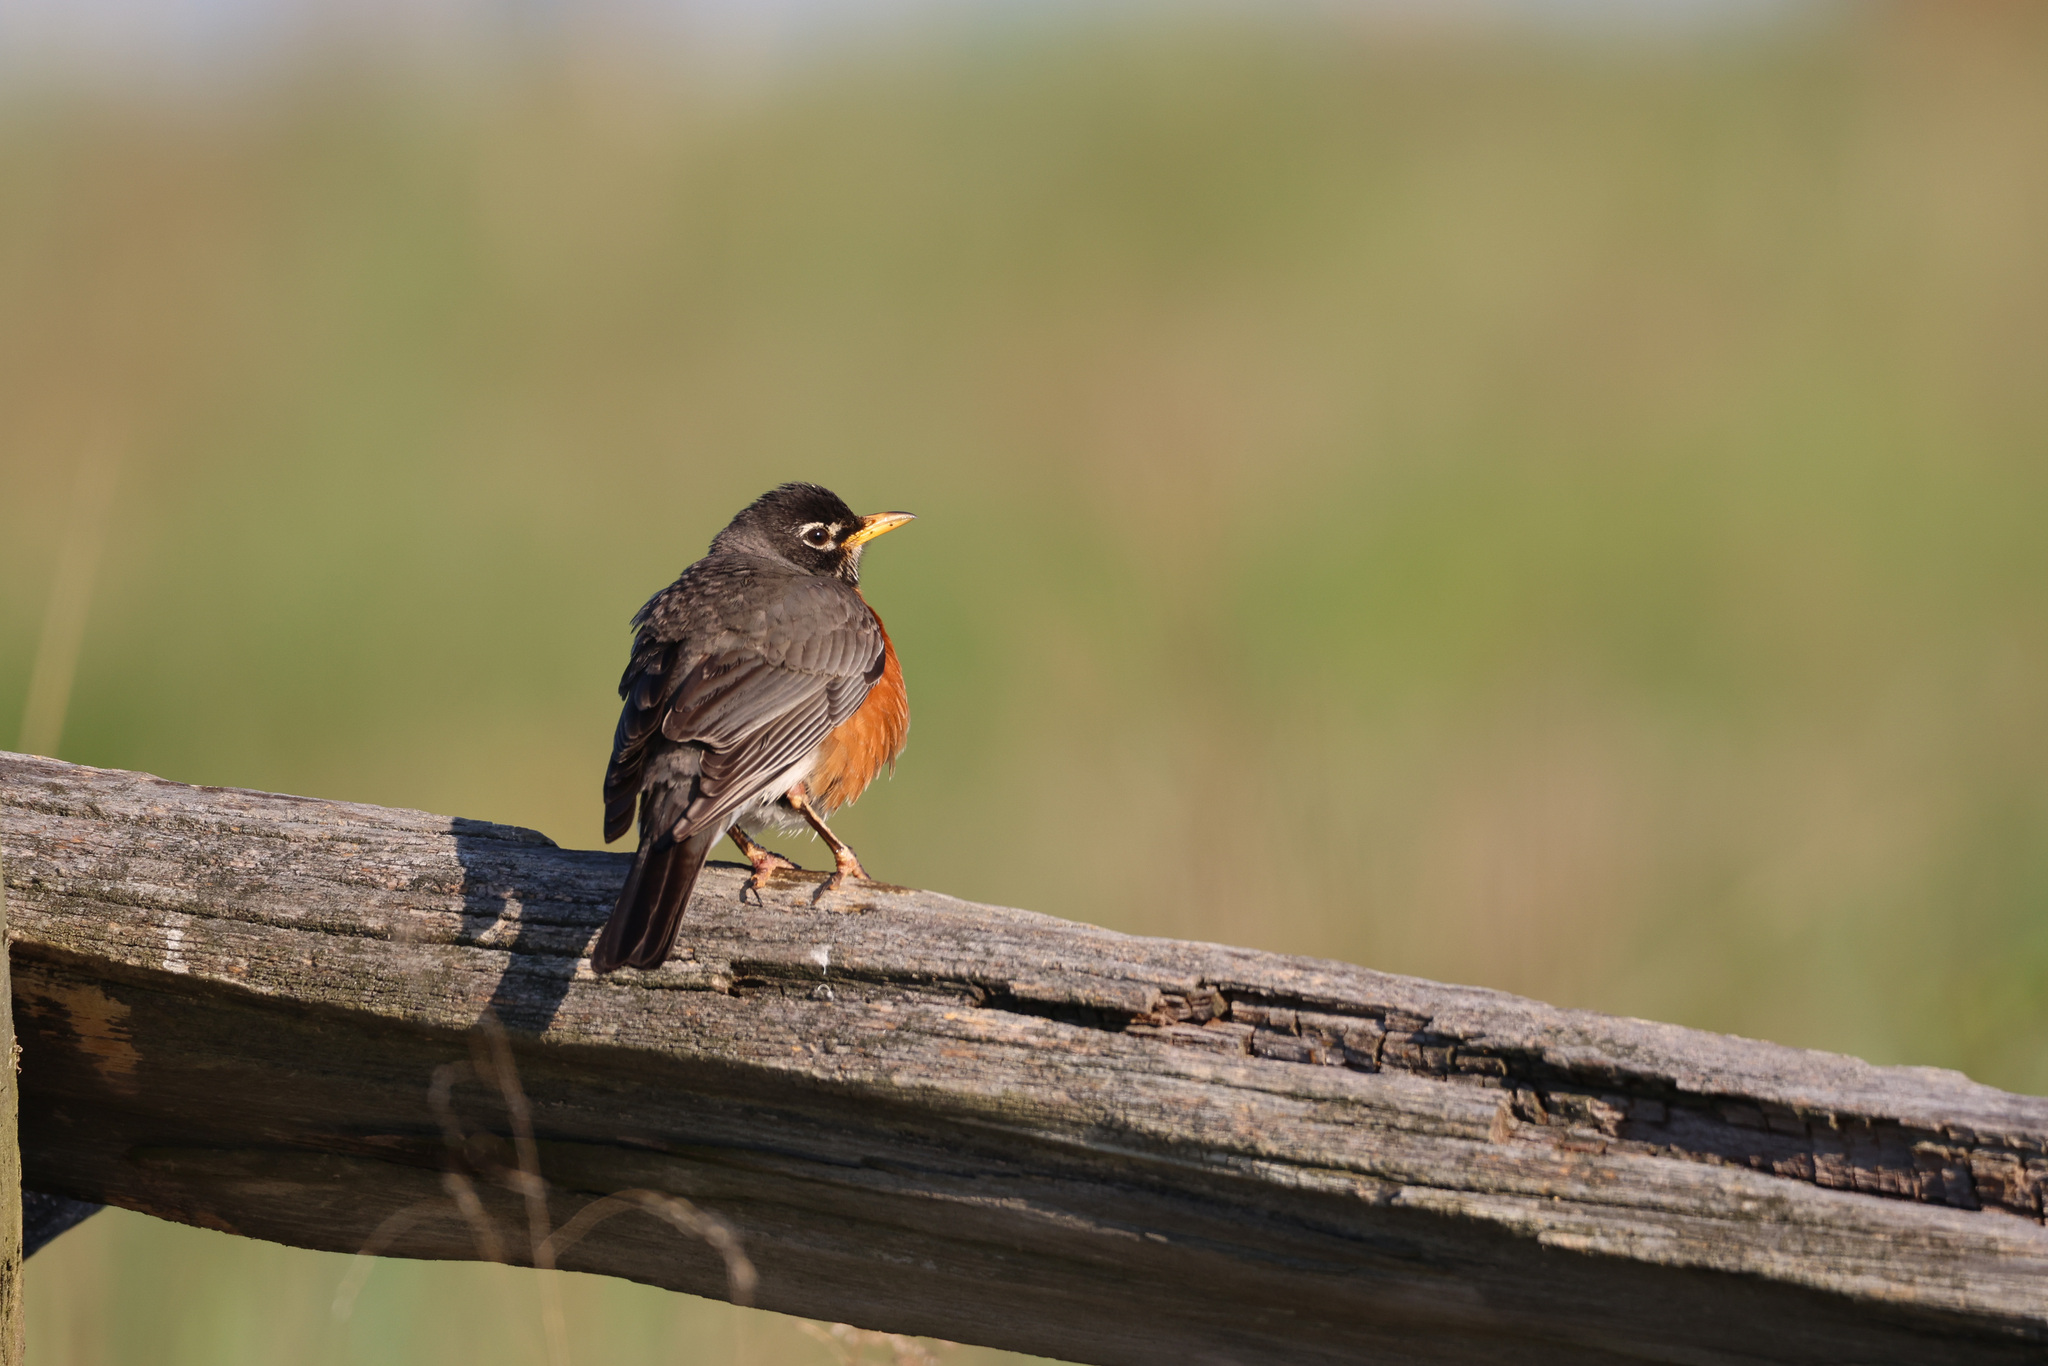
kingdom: Animalia
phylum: Chordata
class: Aves
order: Passeriformes
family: Turdidae
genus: Turdus
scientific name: Turdus migratorius
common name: American robin
